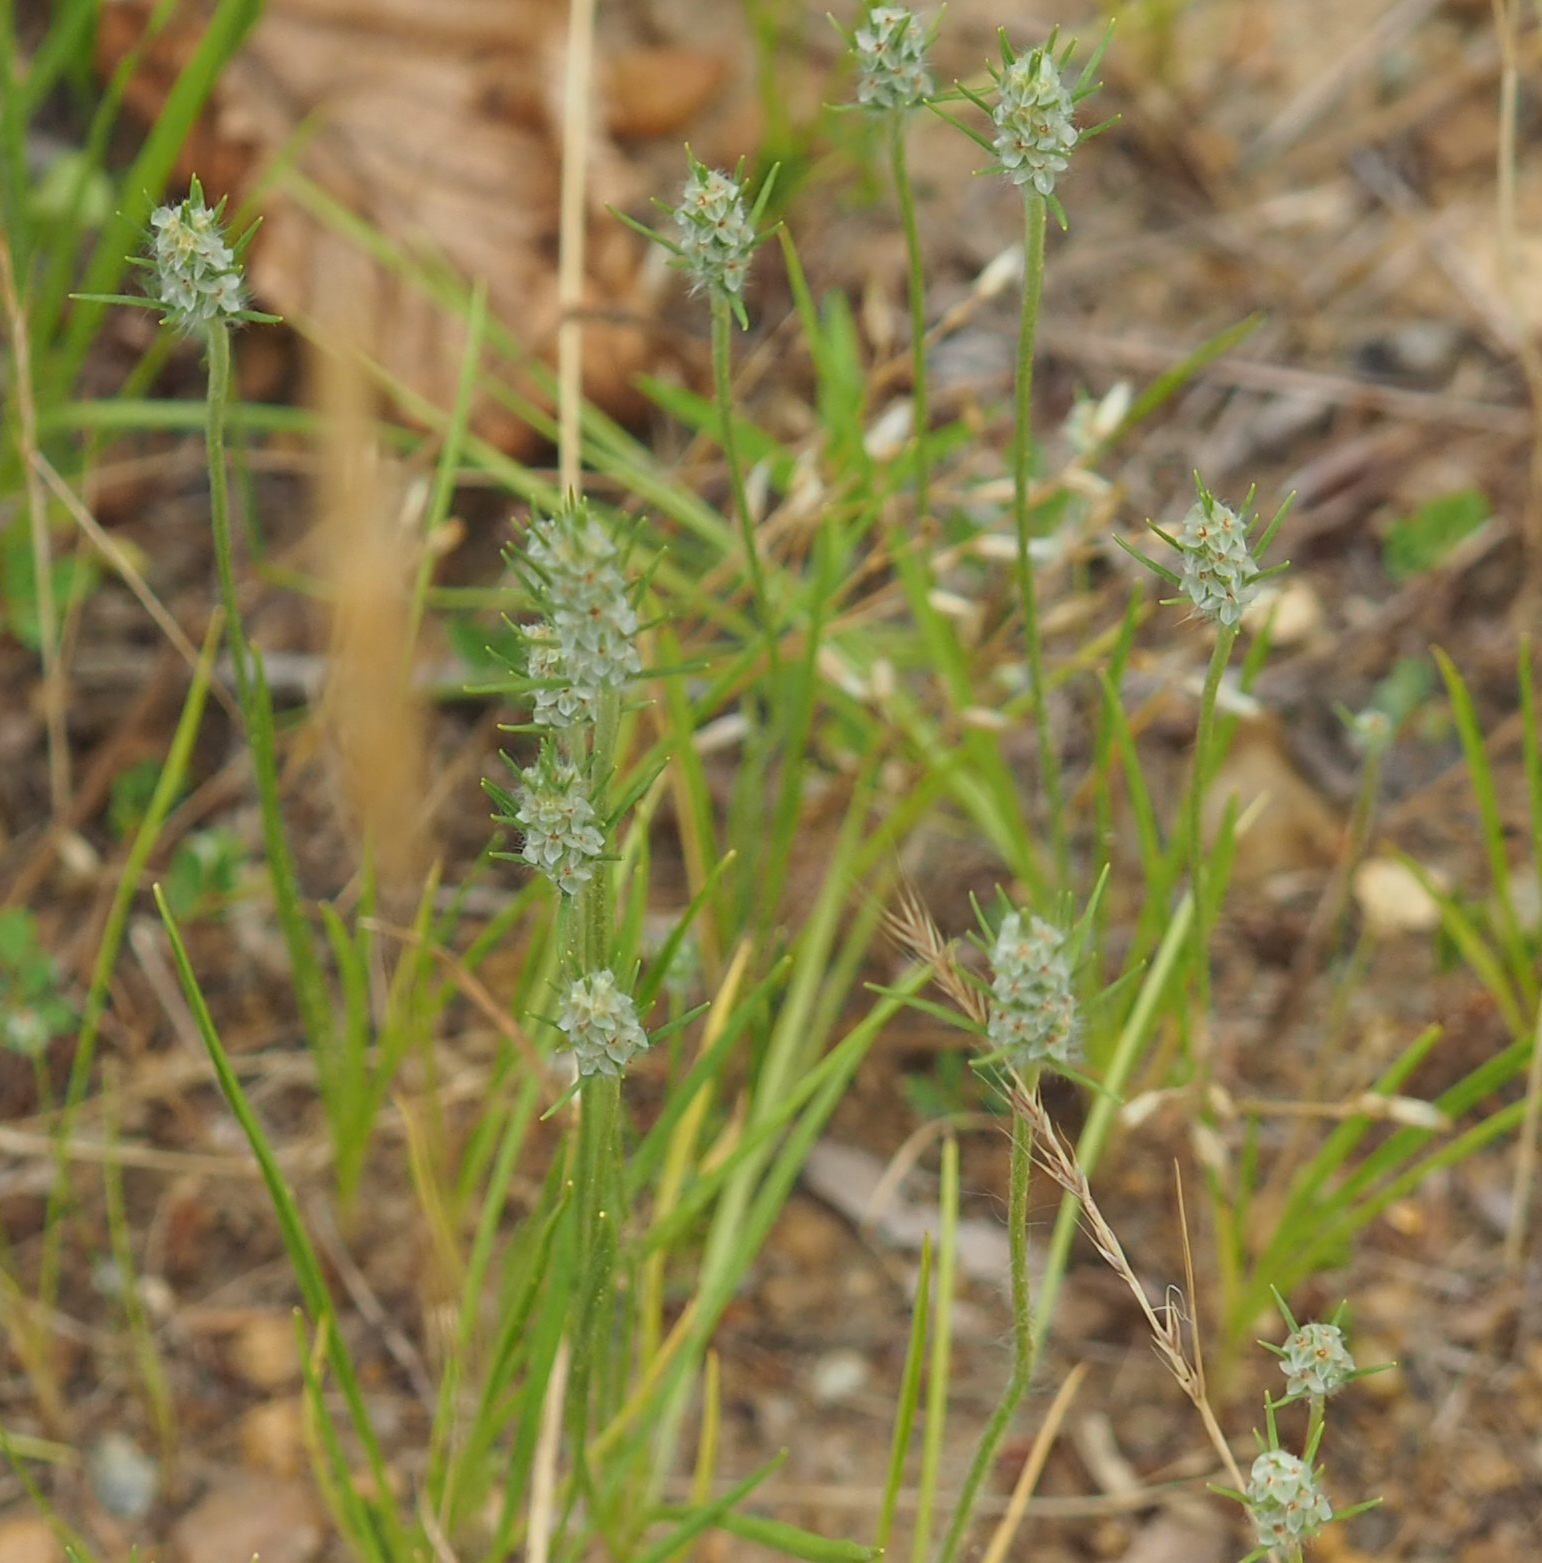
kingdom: Plantae
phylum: Tracheophyta
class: Magnoliopsida
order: Lamiales
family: Plantaginaceae
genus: Plantago
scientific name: Plantago aristata
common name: Bracted plantain
